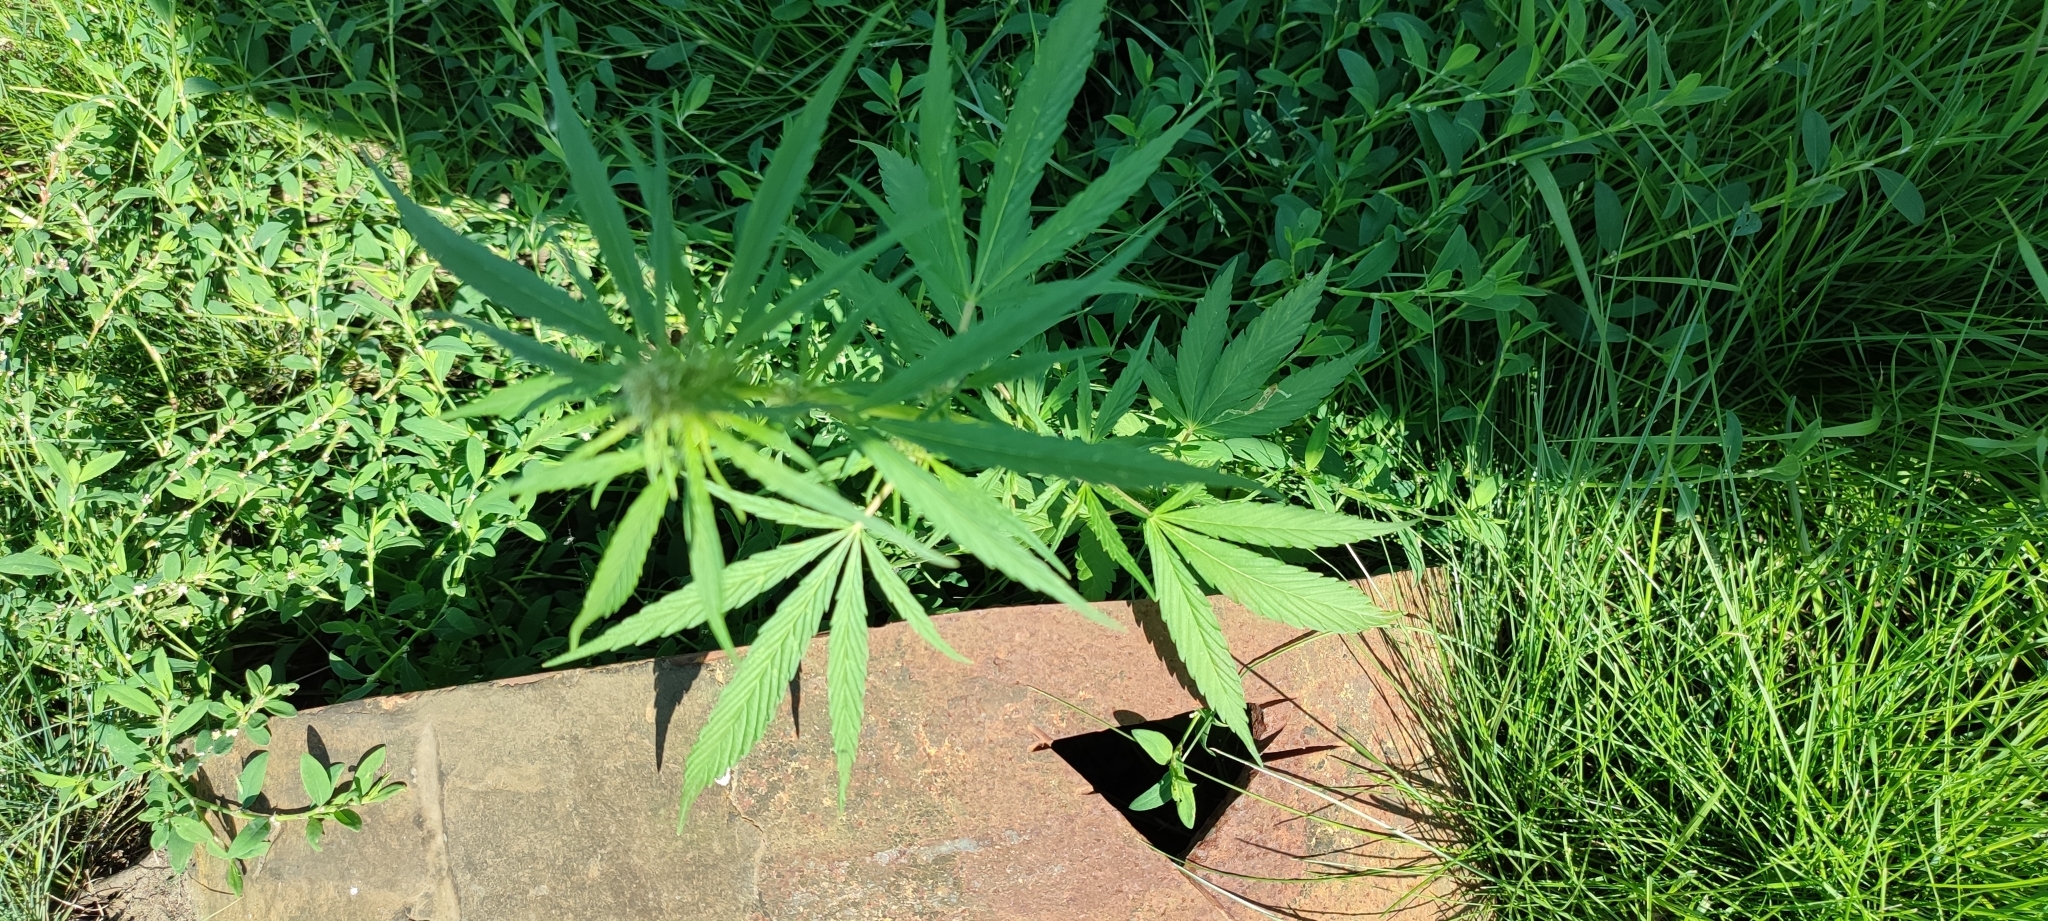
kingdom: Plantae
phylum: Tracheophyta
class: Magnoliopsida
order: Rosales
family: Cannabaceae
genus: Cannabis
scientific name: Cannabis sativa
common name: Hemp
